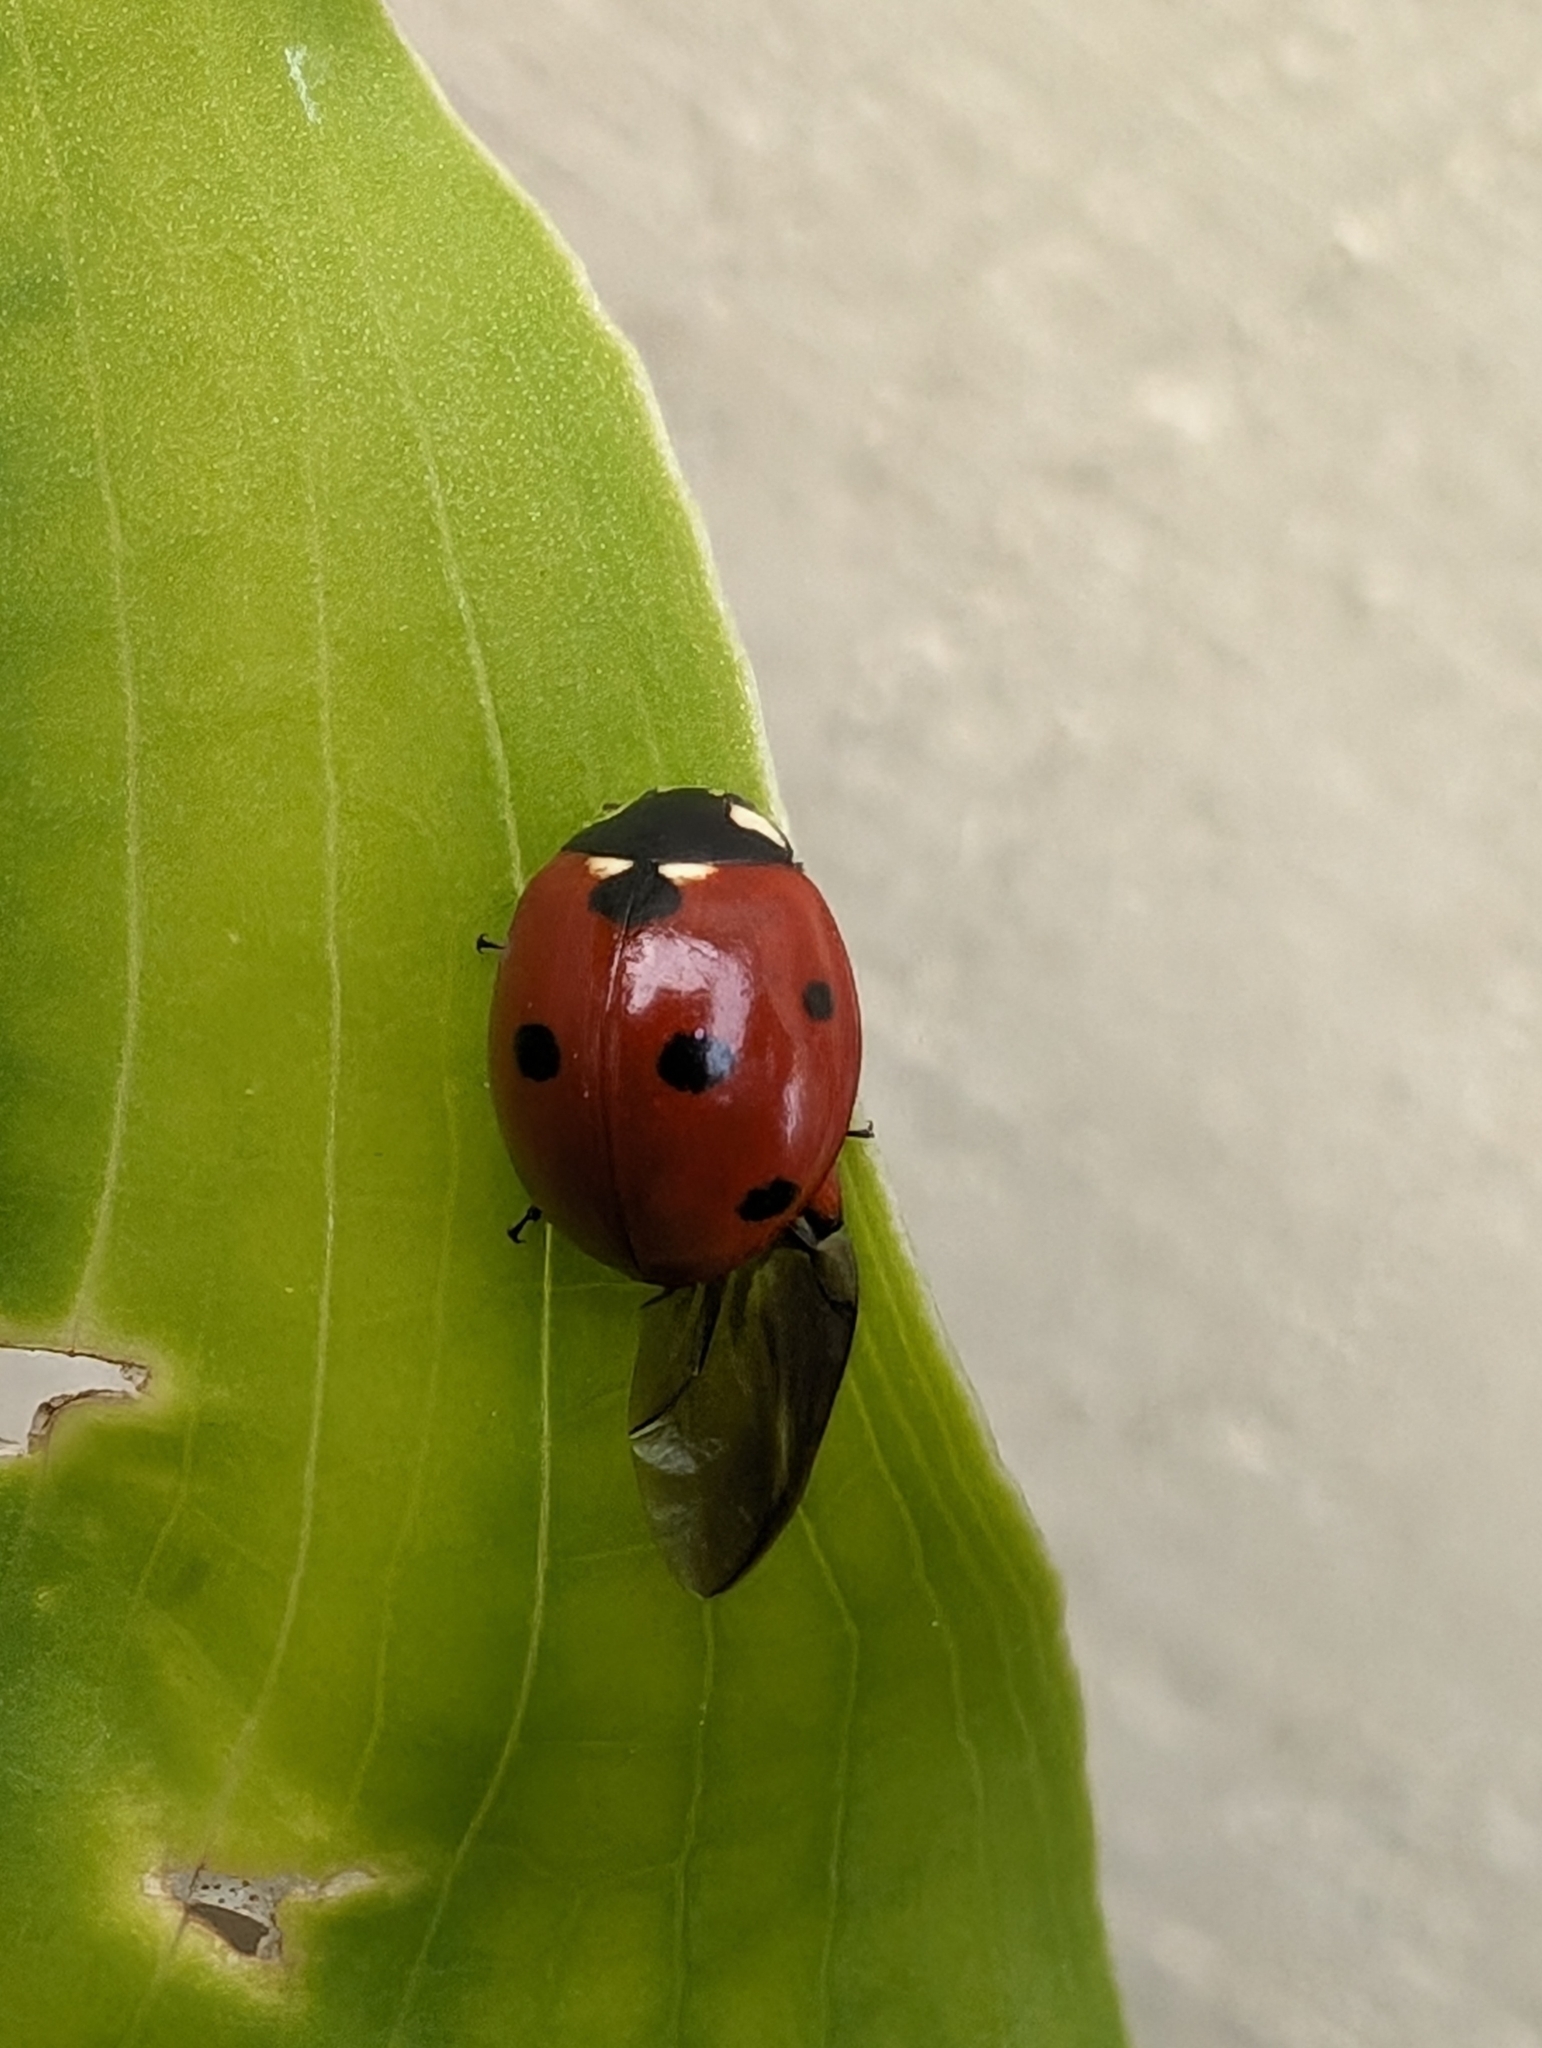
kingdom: Animalia
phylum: Arthropoda
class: Insecta
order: Coleoptera
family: Coccinellidae
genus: Coccinella
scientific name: Coccinella septempunctata
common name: Sevenspotted lady beetle
